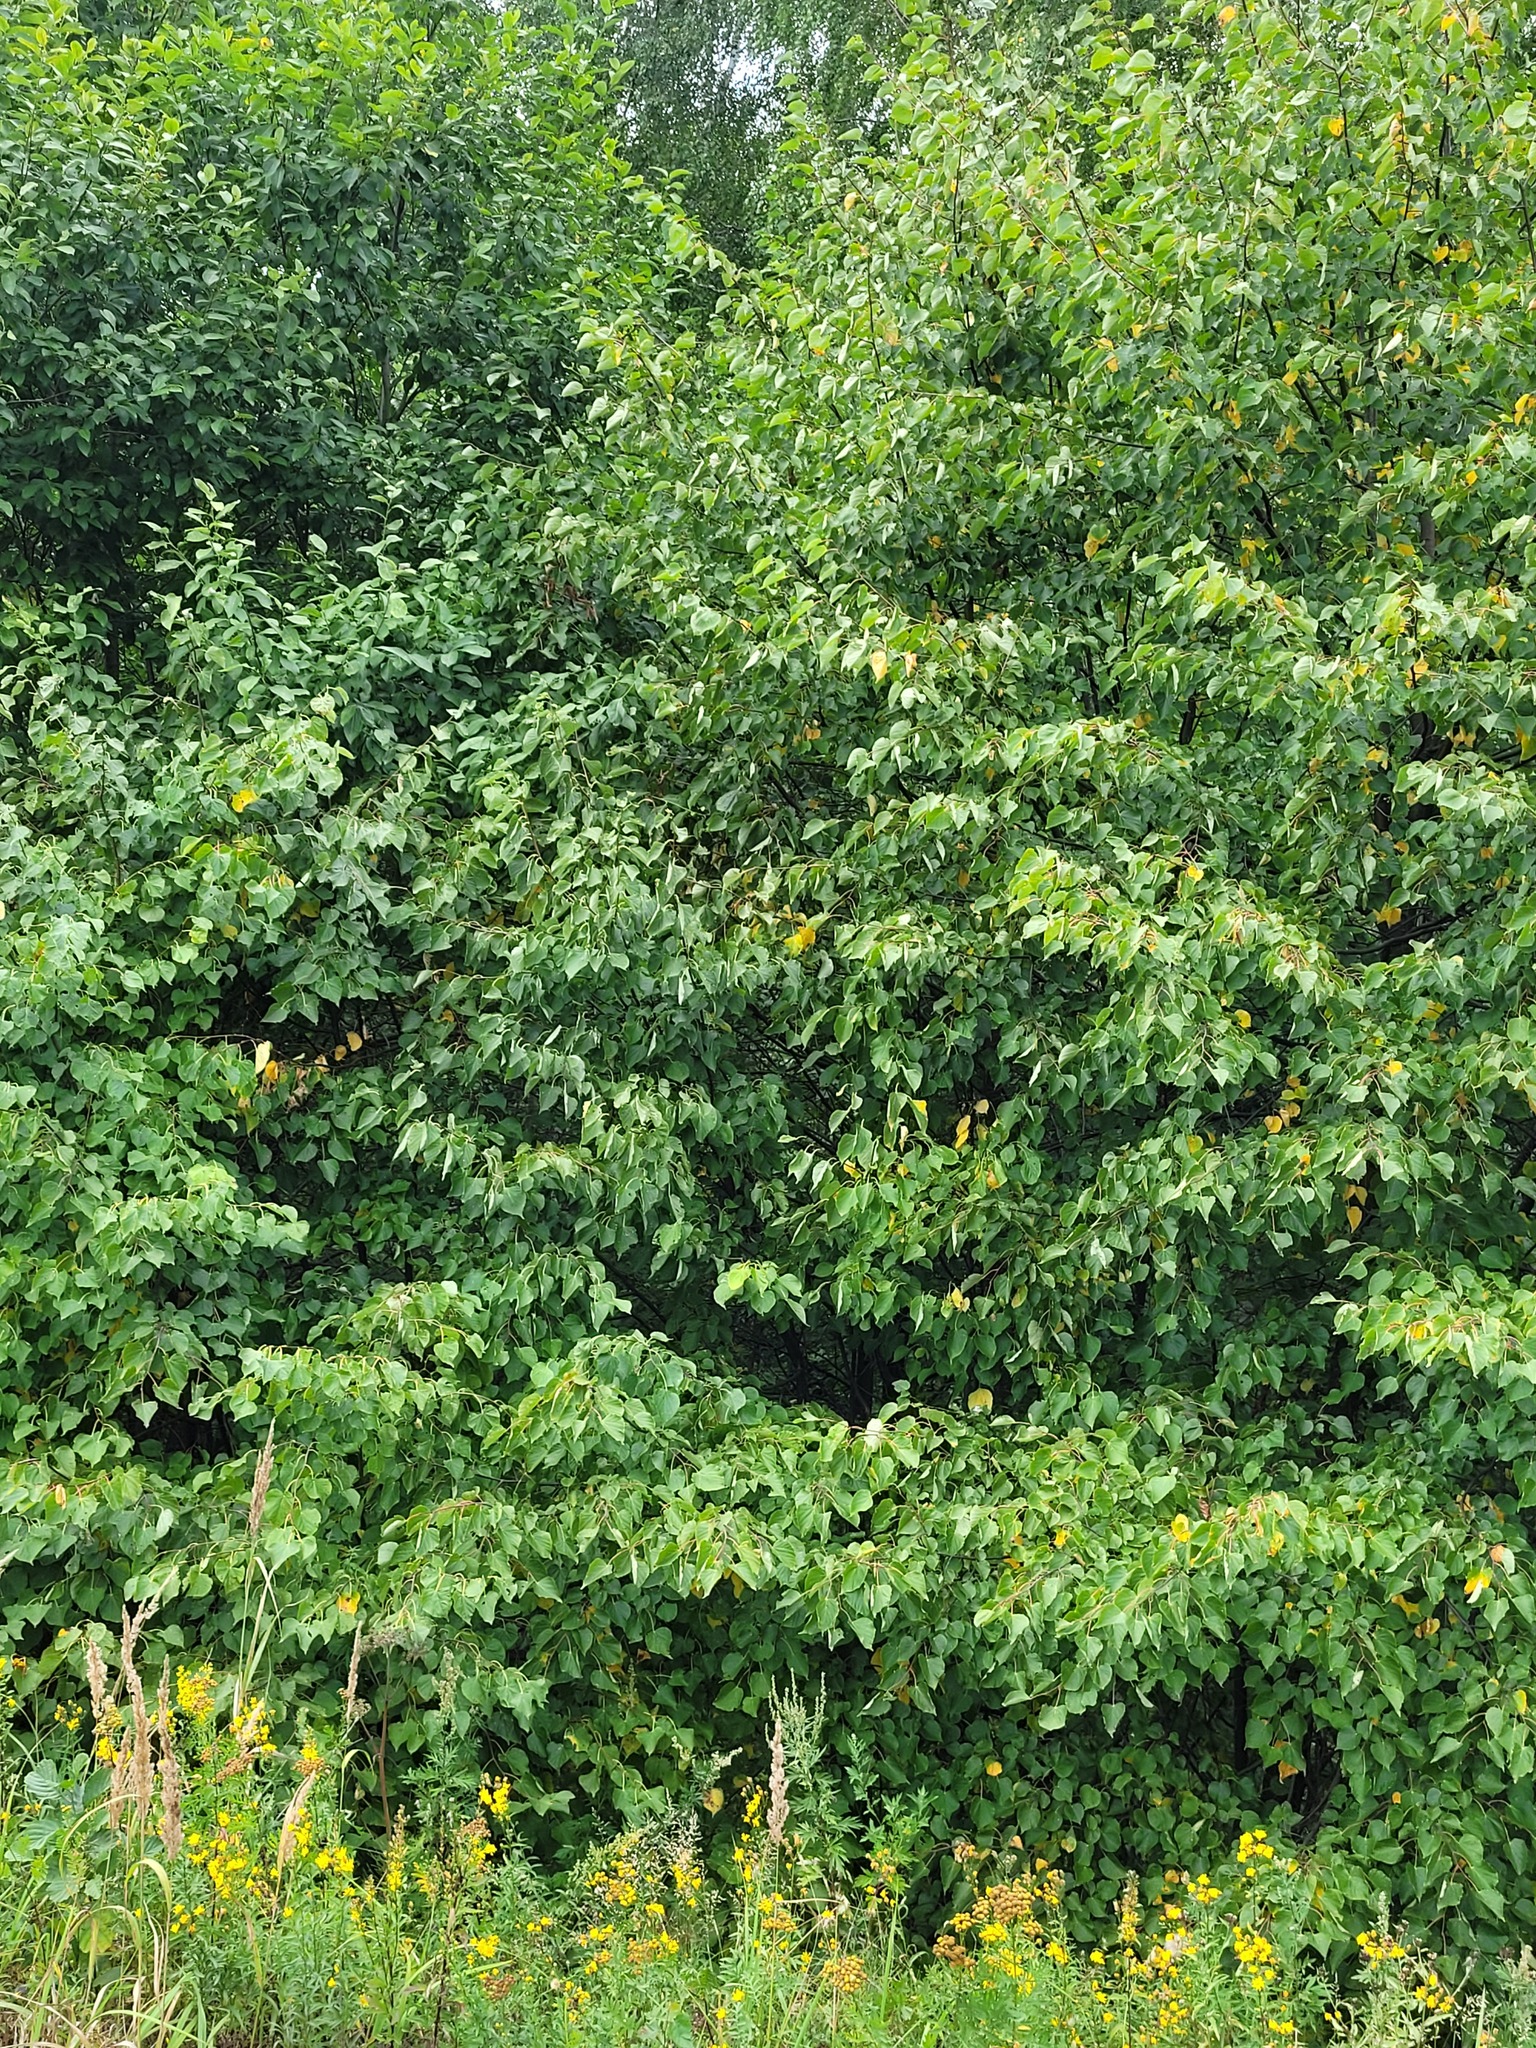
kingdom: Plantae
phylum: Tracheophyta
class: Magnoliopsida
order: Malvales
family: Malvaceae
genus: Tilia
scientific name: Tilia cordata
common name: Small-leaved lime
